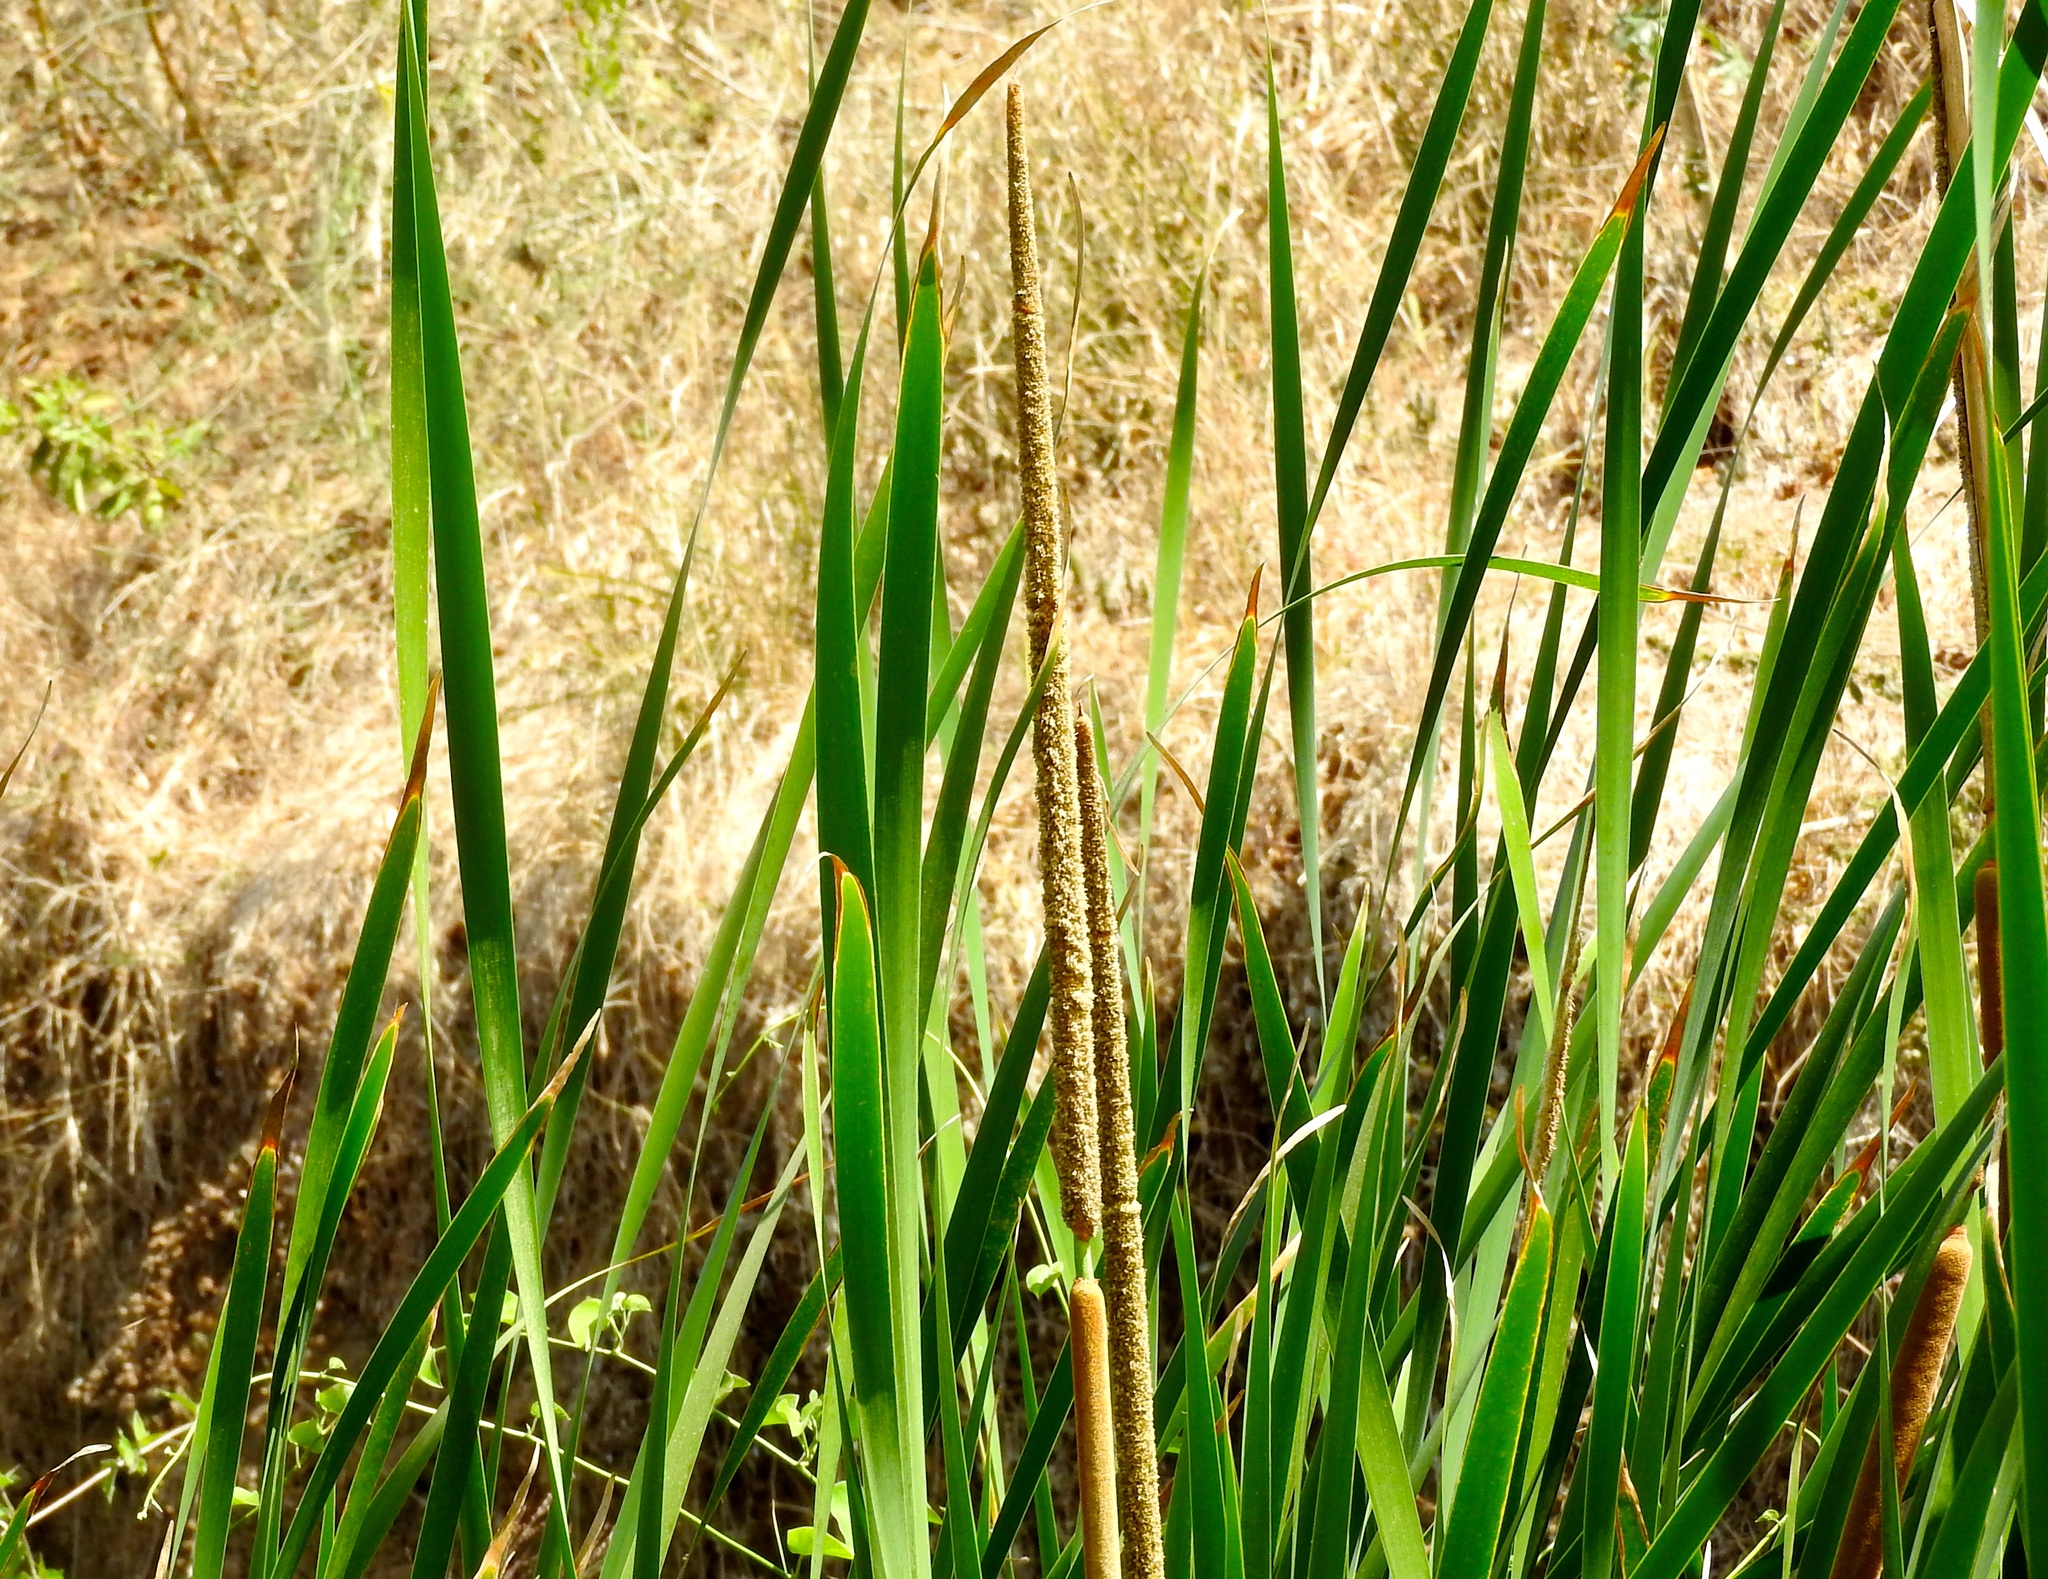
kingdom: Plantae
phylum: Tracheophyta
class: Liliopsida
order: Poales
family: Typhaceae
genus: Typha
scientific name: Typha domingensis
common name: Southern cattail
